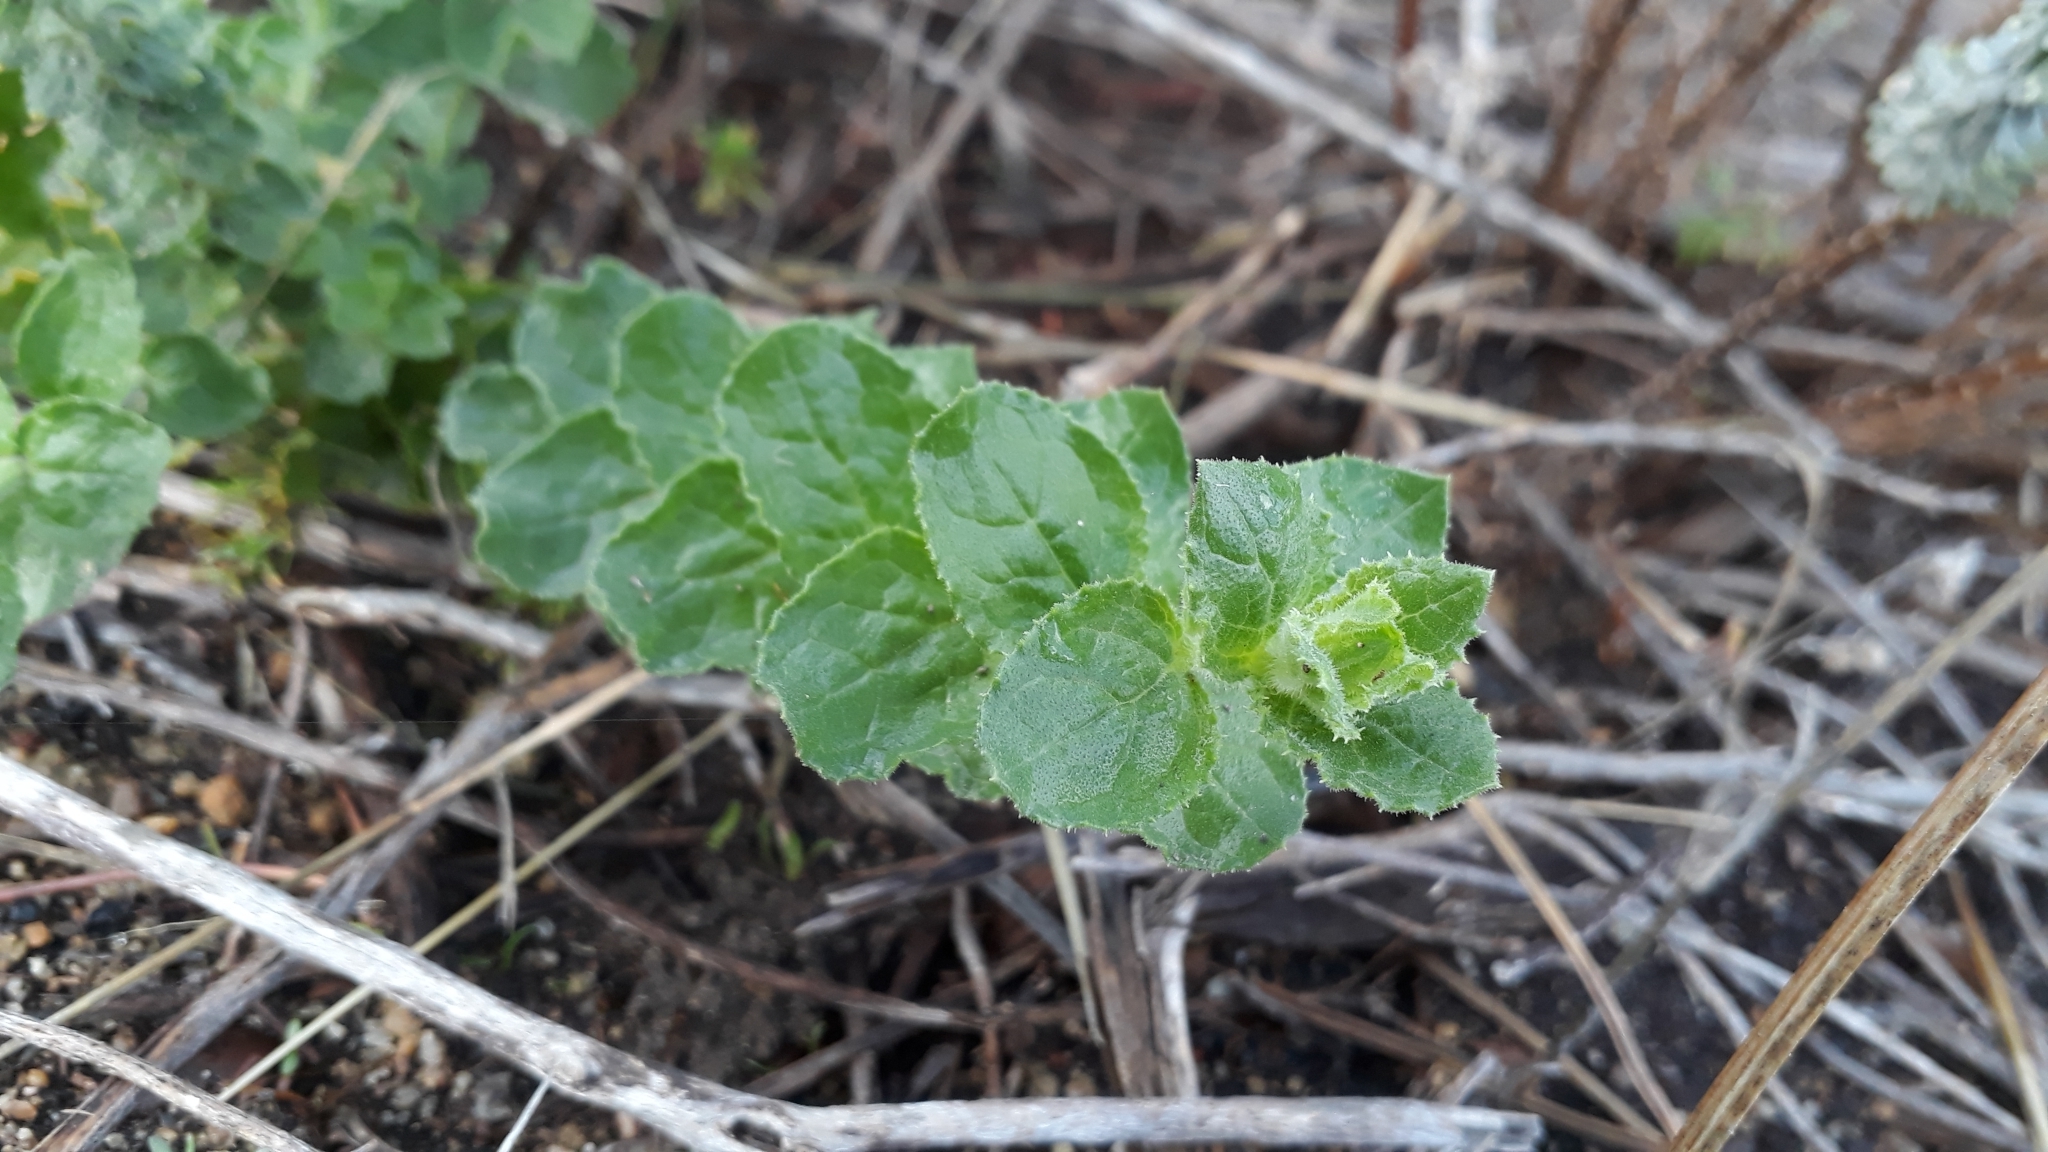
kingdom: Plantae
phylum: Tracheophyta
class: Magnoliopsida
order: Lamiales
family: Scrophulariaceae
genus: Oftia
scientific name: Oftia africana
